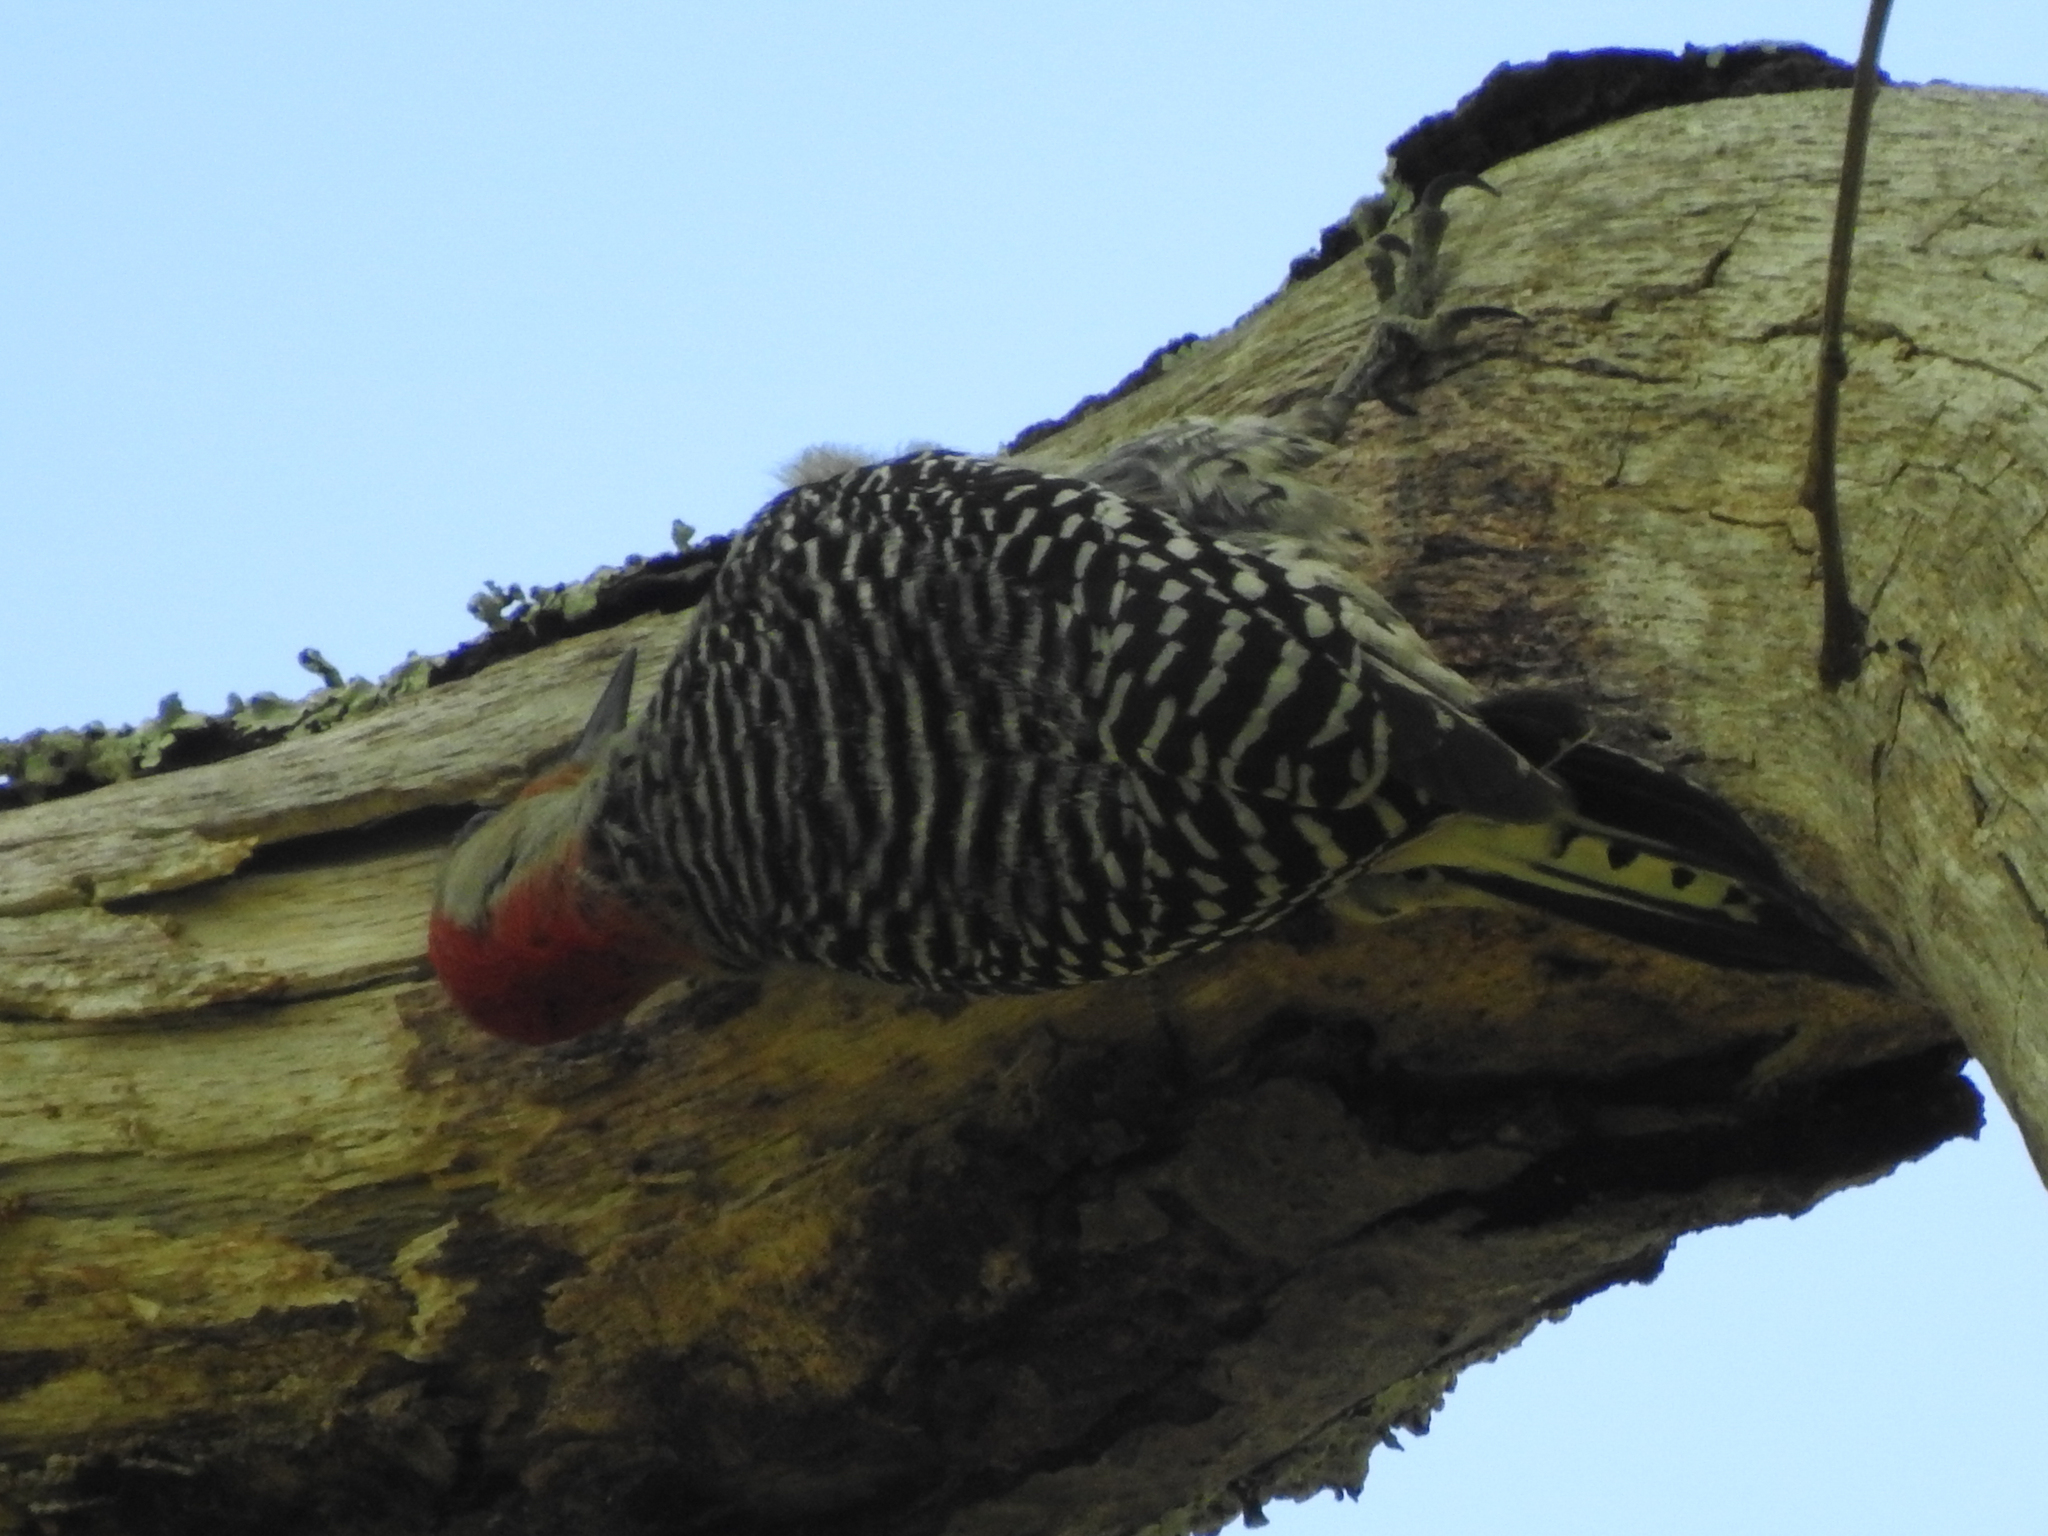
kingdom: Animalia
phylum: Chordata
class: Aves
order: Piciformes
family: Picidae
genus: Melanerpes
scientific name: Melanerpes carolinus
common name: Red-bellied woodpecker
